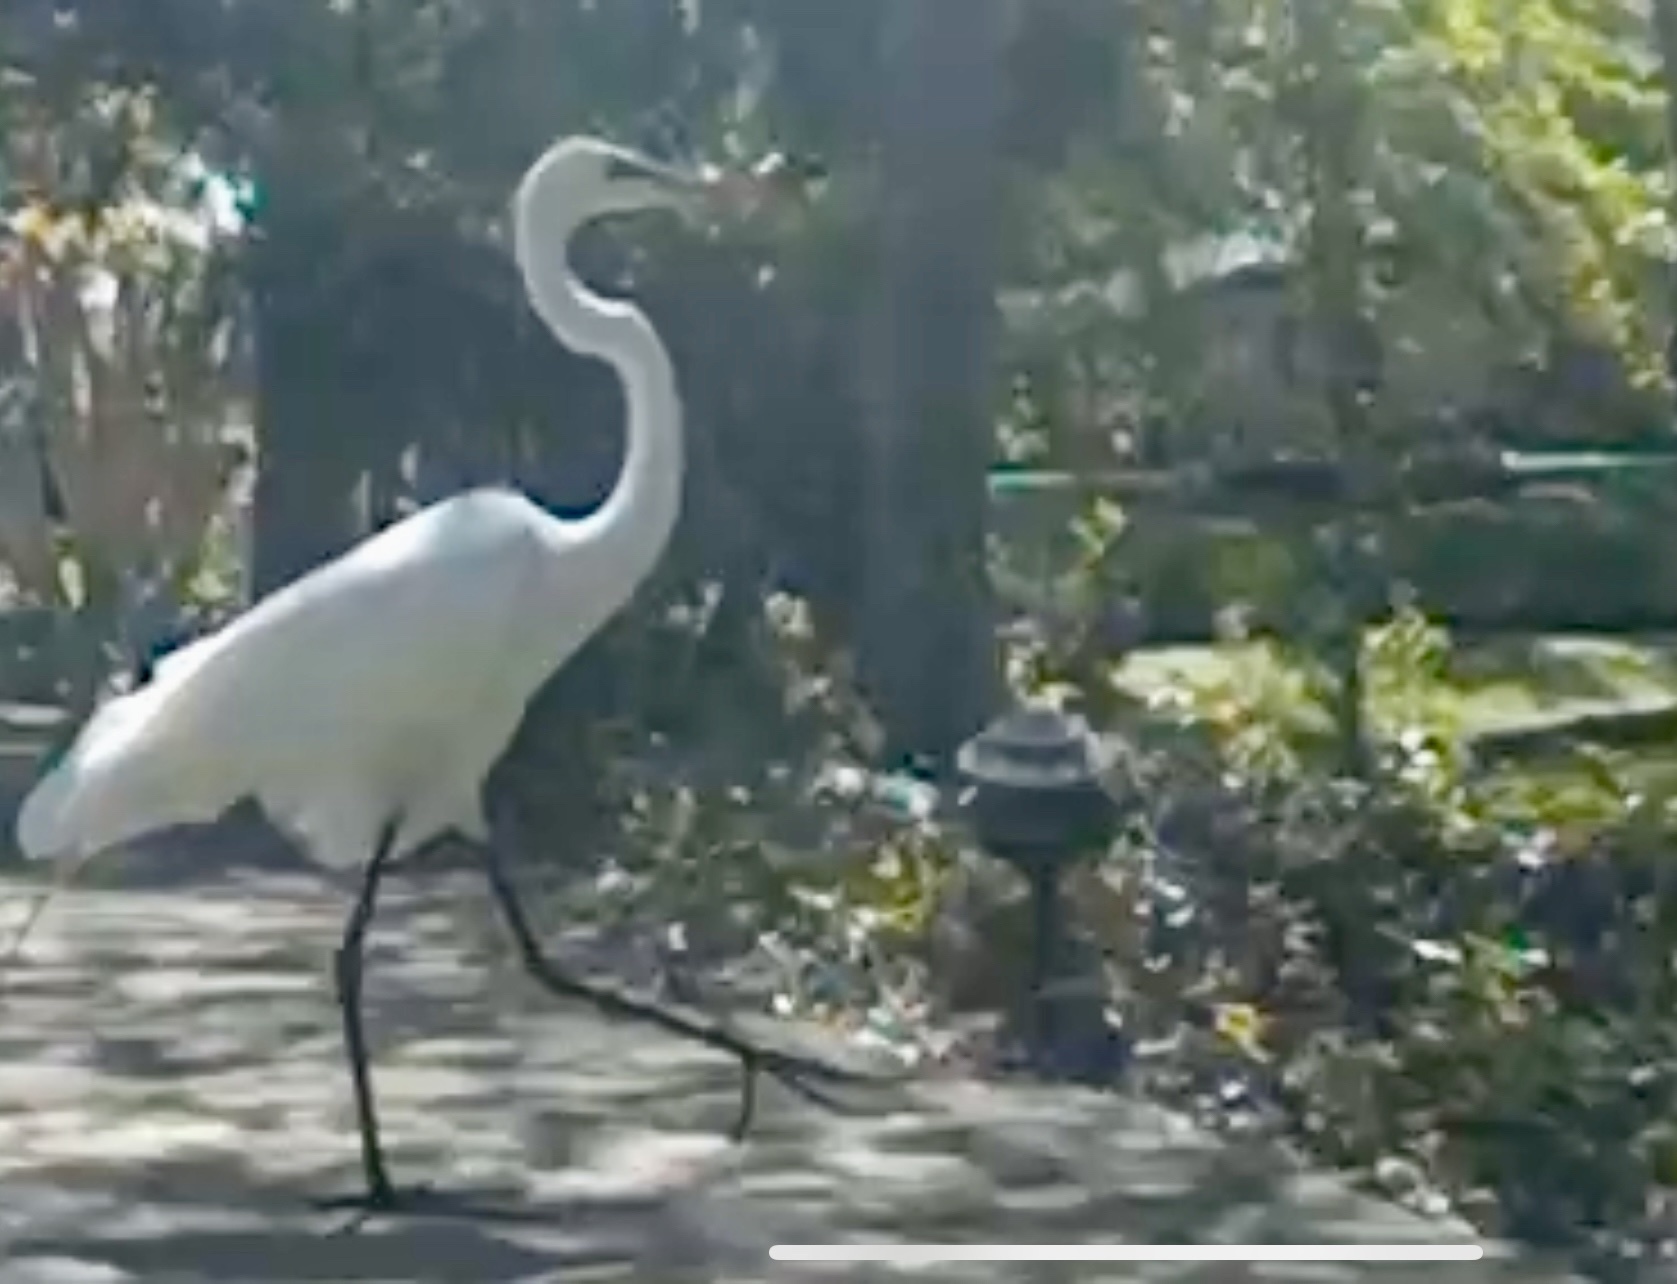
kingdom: Animalia
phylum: Chordata
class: Aves
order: Pelecaniformes
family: Ardeidae
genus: Ardea
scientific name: Ardea alba
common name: Great egret
